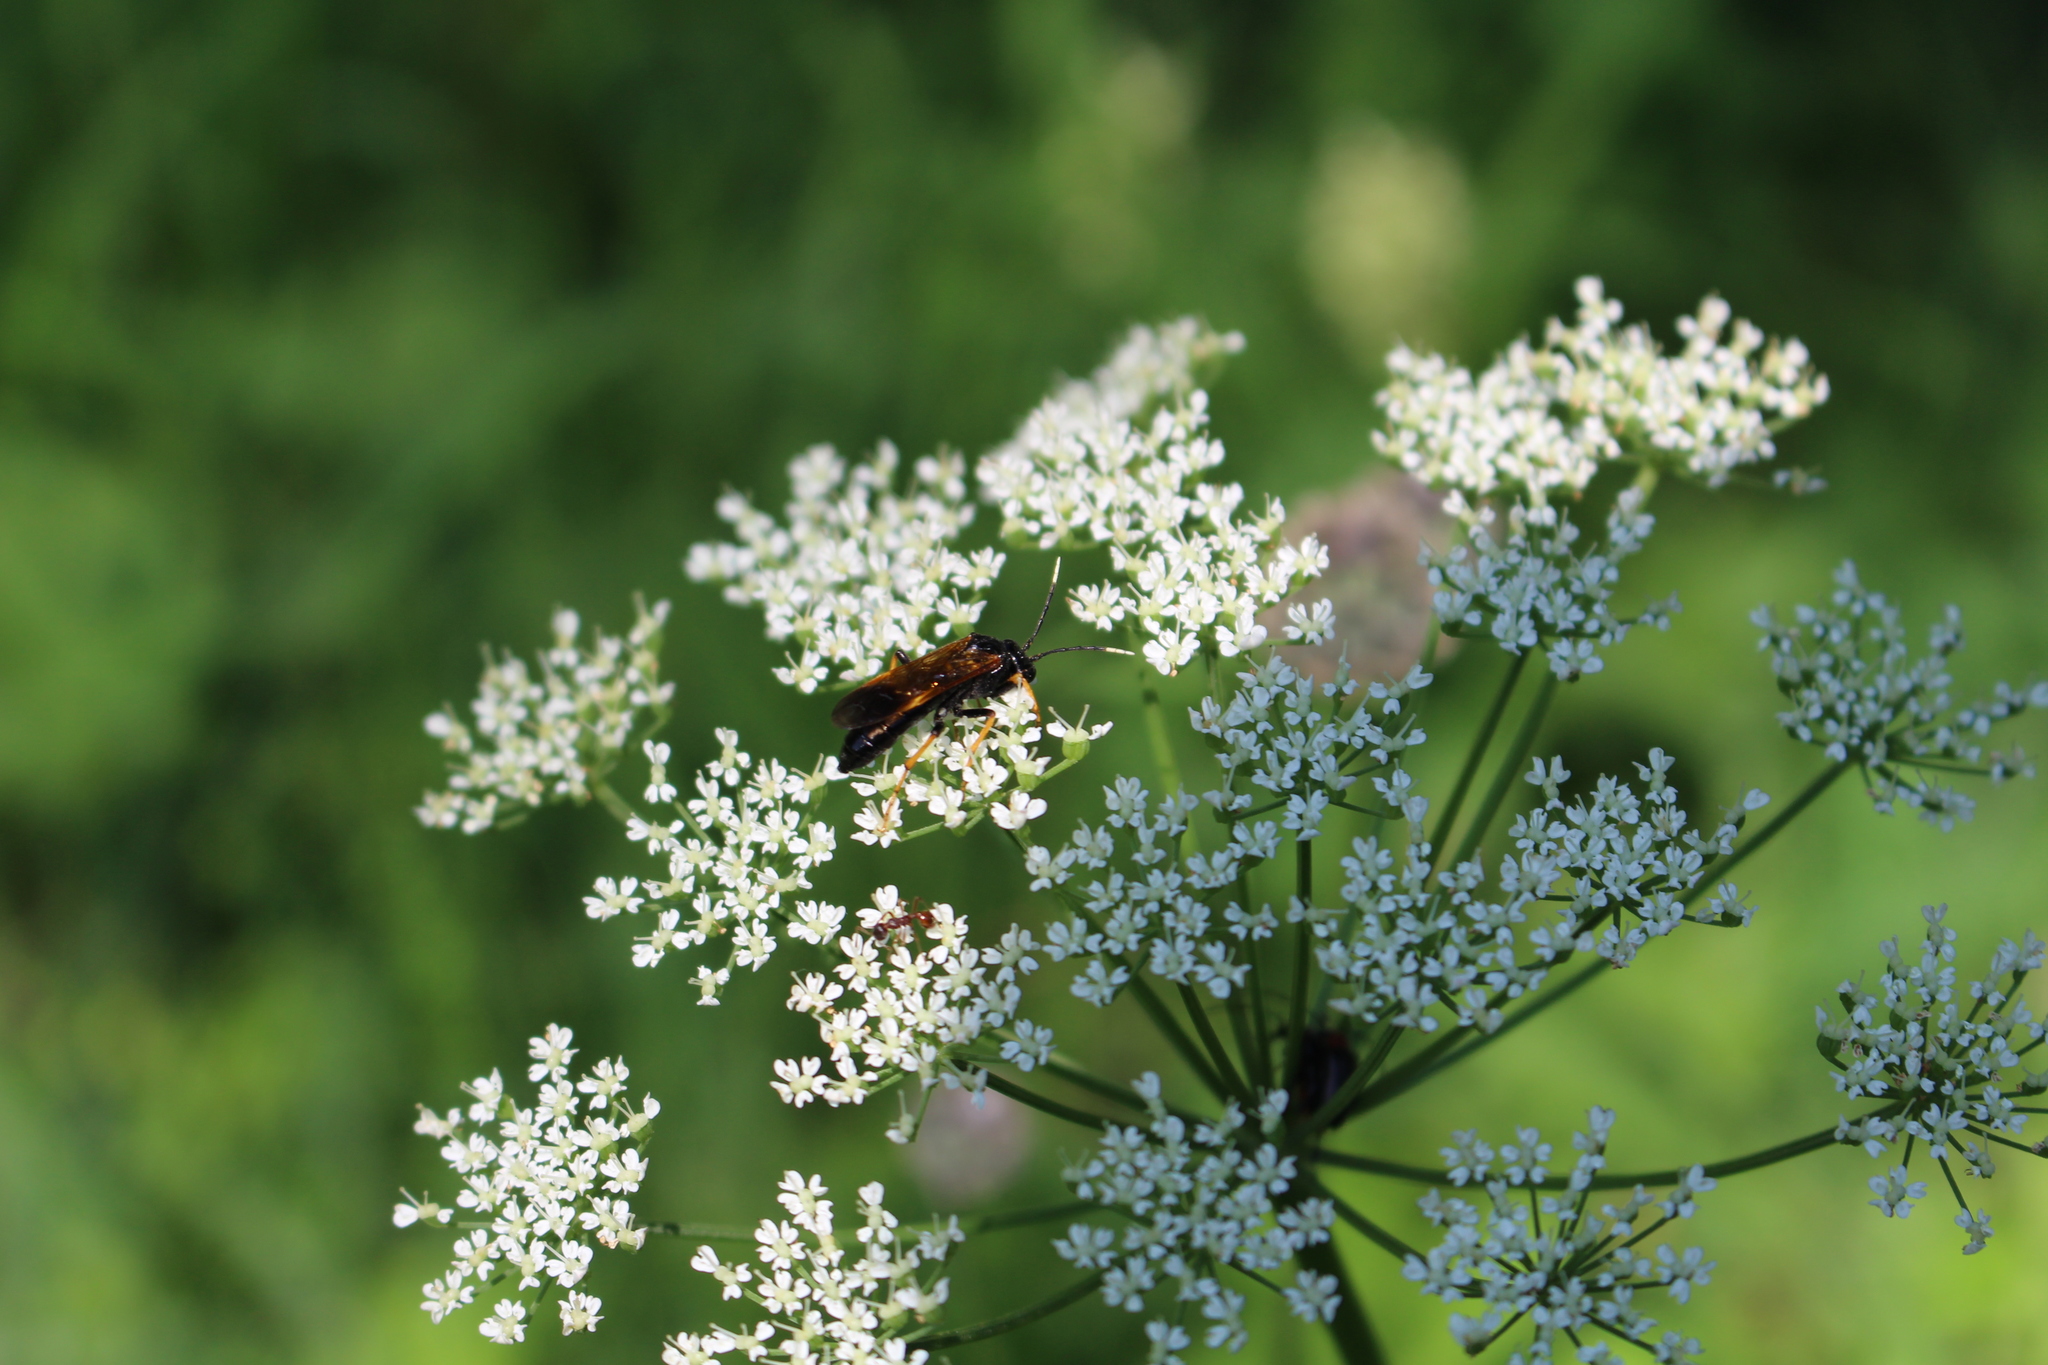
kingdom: Animalia
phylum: Arthropoda
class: Insecta
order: Hymenoptera
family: Tenthredinidae
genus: Tenthredo
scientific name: Tenthredo crassa
